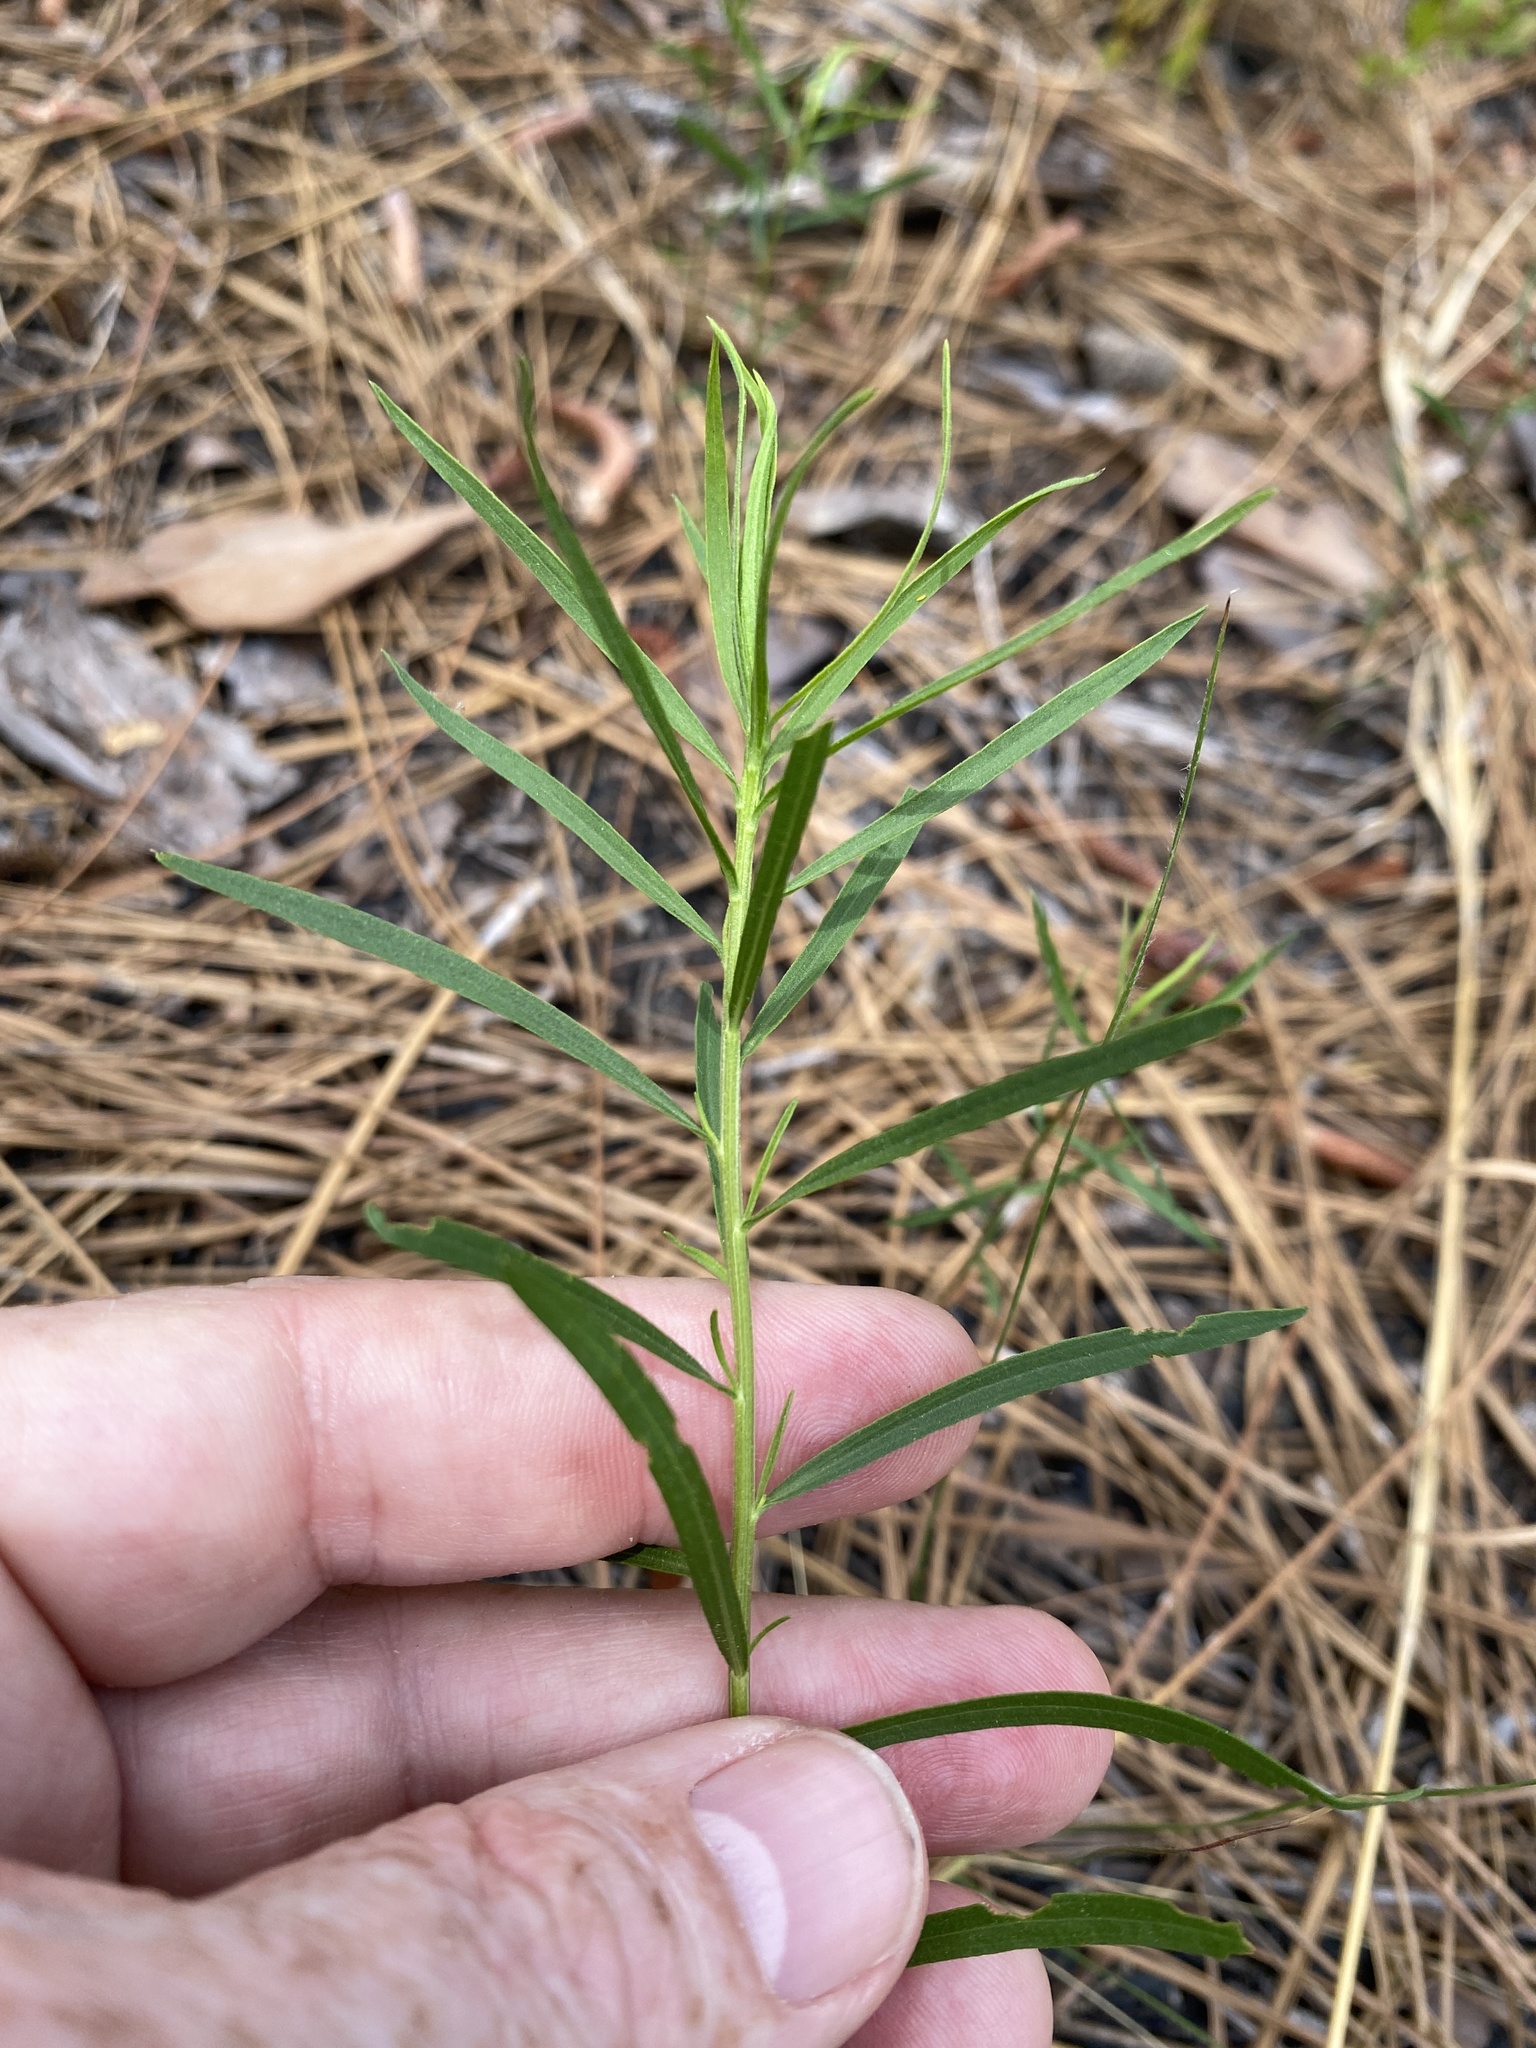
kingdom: Plantae
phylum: Tracheophyta
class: Magnoliopsida
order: Asterales
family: Asteraceae
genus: Euthamia
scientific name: Euthamia caroliniana
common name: Coastal plain goldentop
